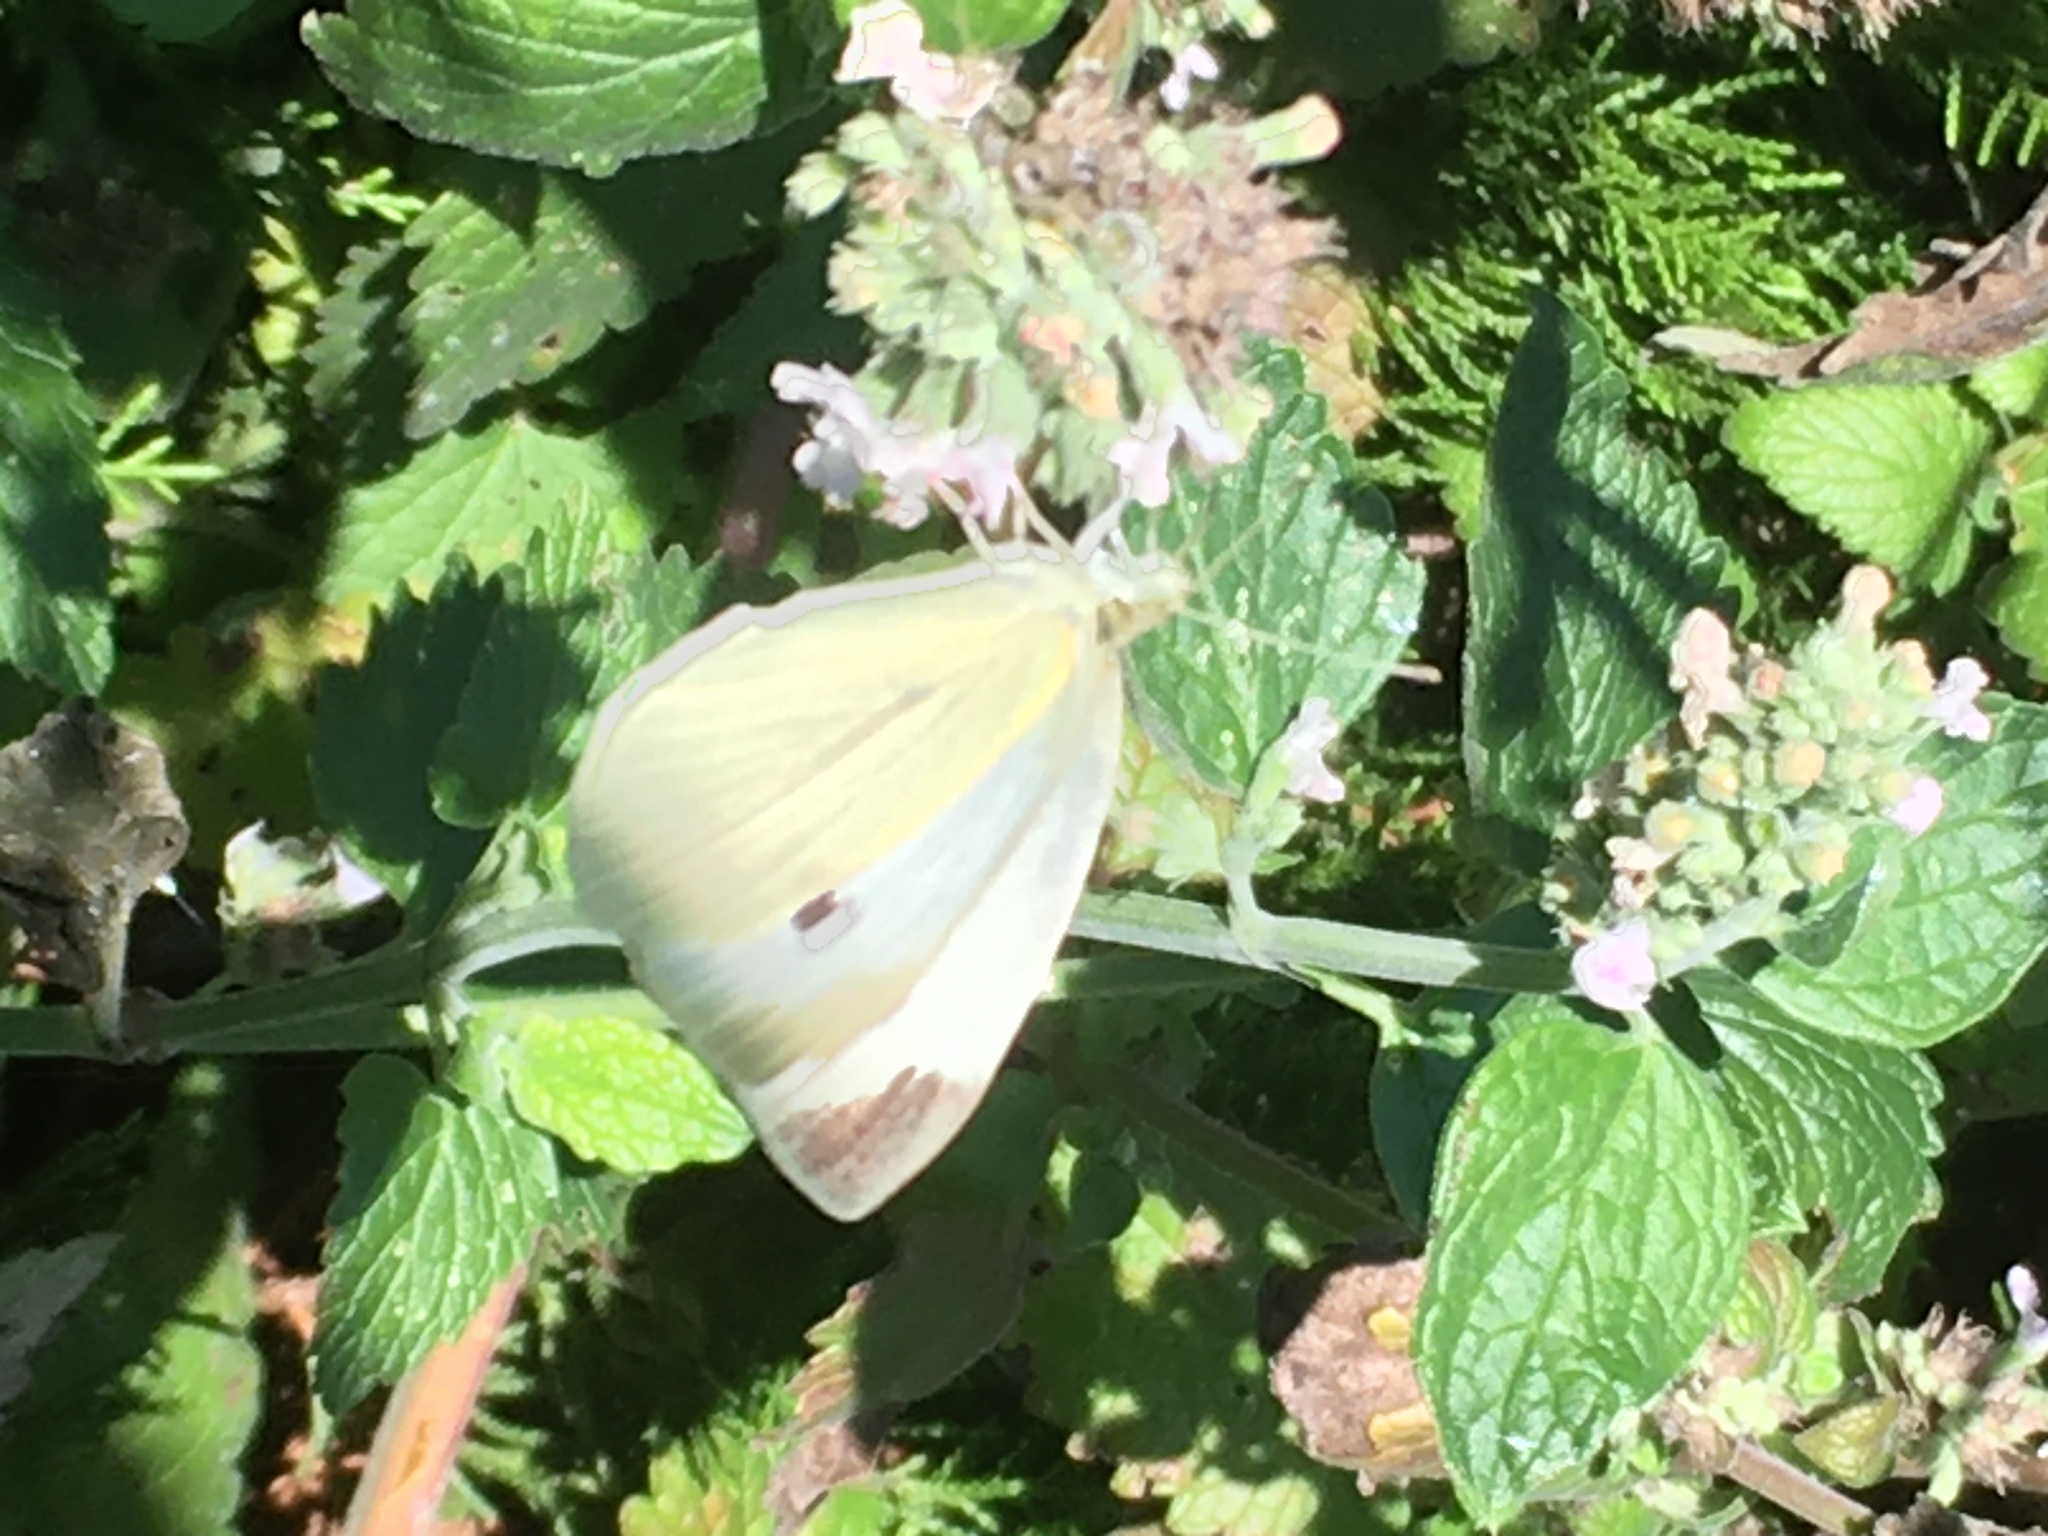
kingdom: Animalia
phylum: Arthropoda
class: Insecta
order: Lepidoptera
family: Pieridae
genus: Pieris
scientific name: Pieris rapae
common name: Small white
